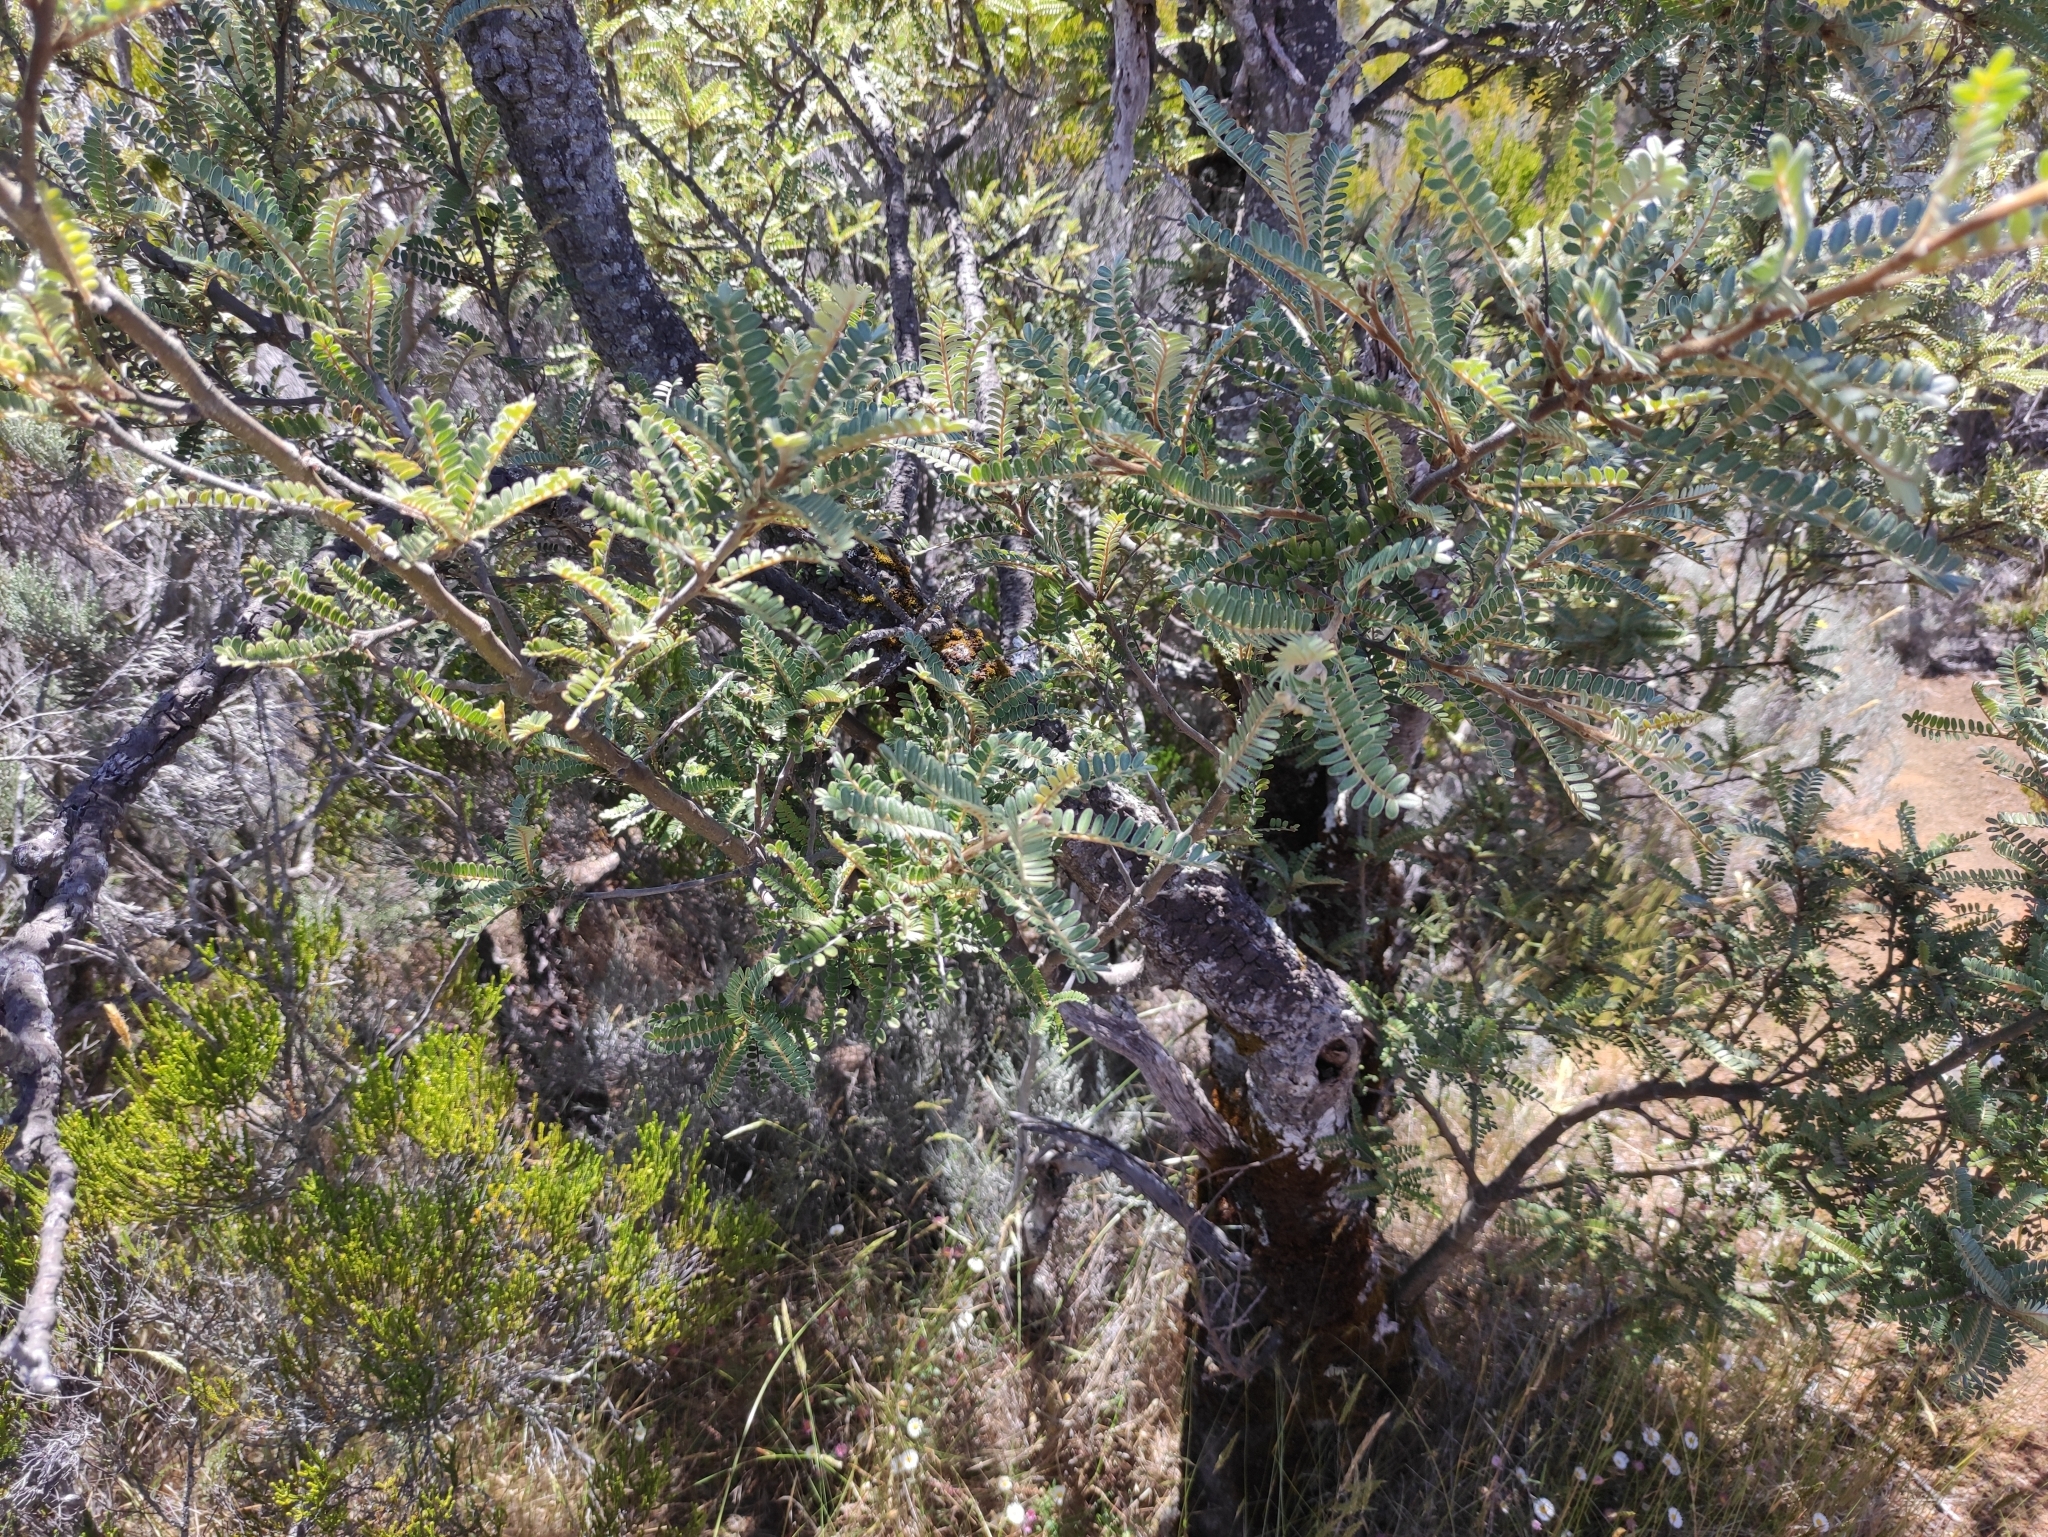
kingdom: Plantae
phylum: Tracheophyta
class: Magnoliopsida
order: Fabales
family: Fabaceae
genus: Sophora
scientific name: Sophora denudata
